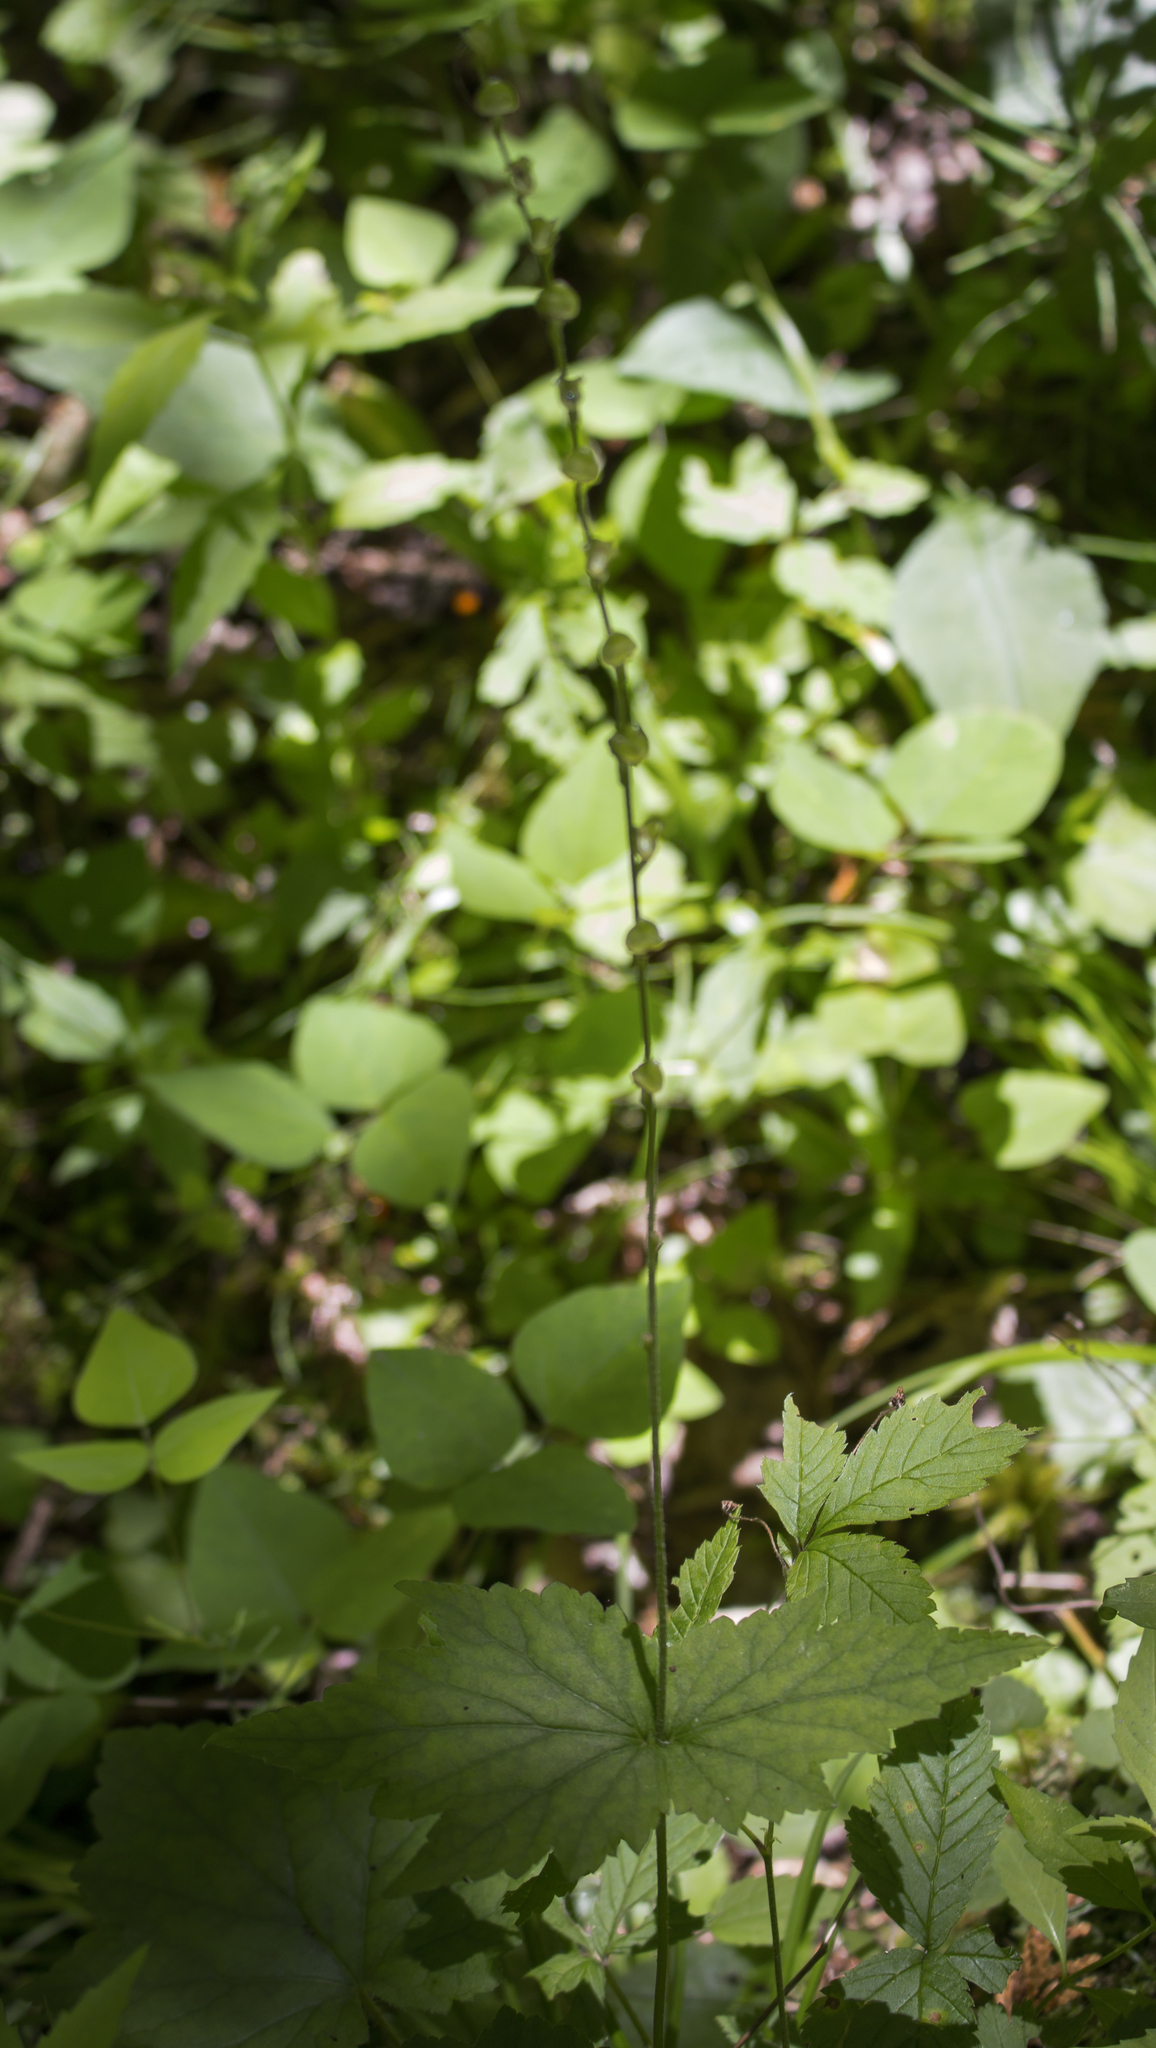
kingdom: Plantae
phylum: Tracheophyta
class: Magnoliopsida
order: Saxifragales
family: Saxifragaceae
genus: Mitella
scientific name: Mitella diphylla
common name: Coolwort
